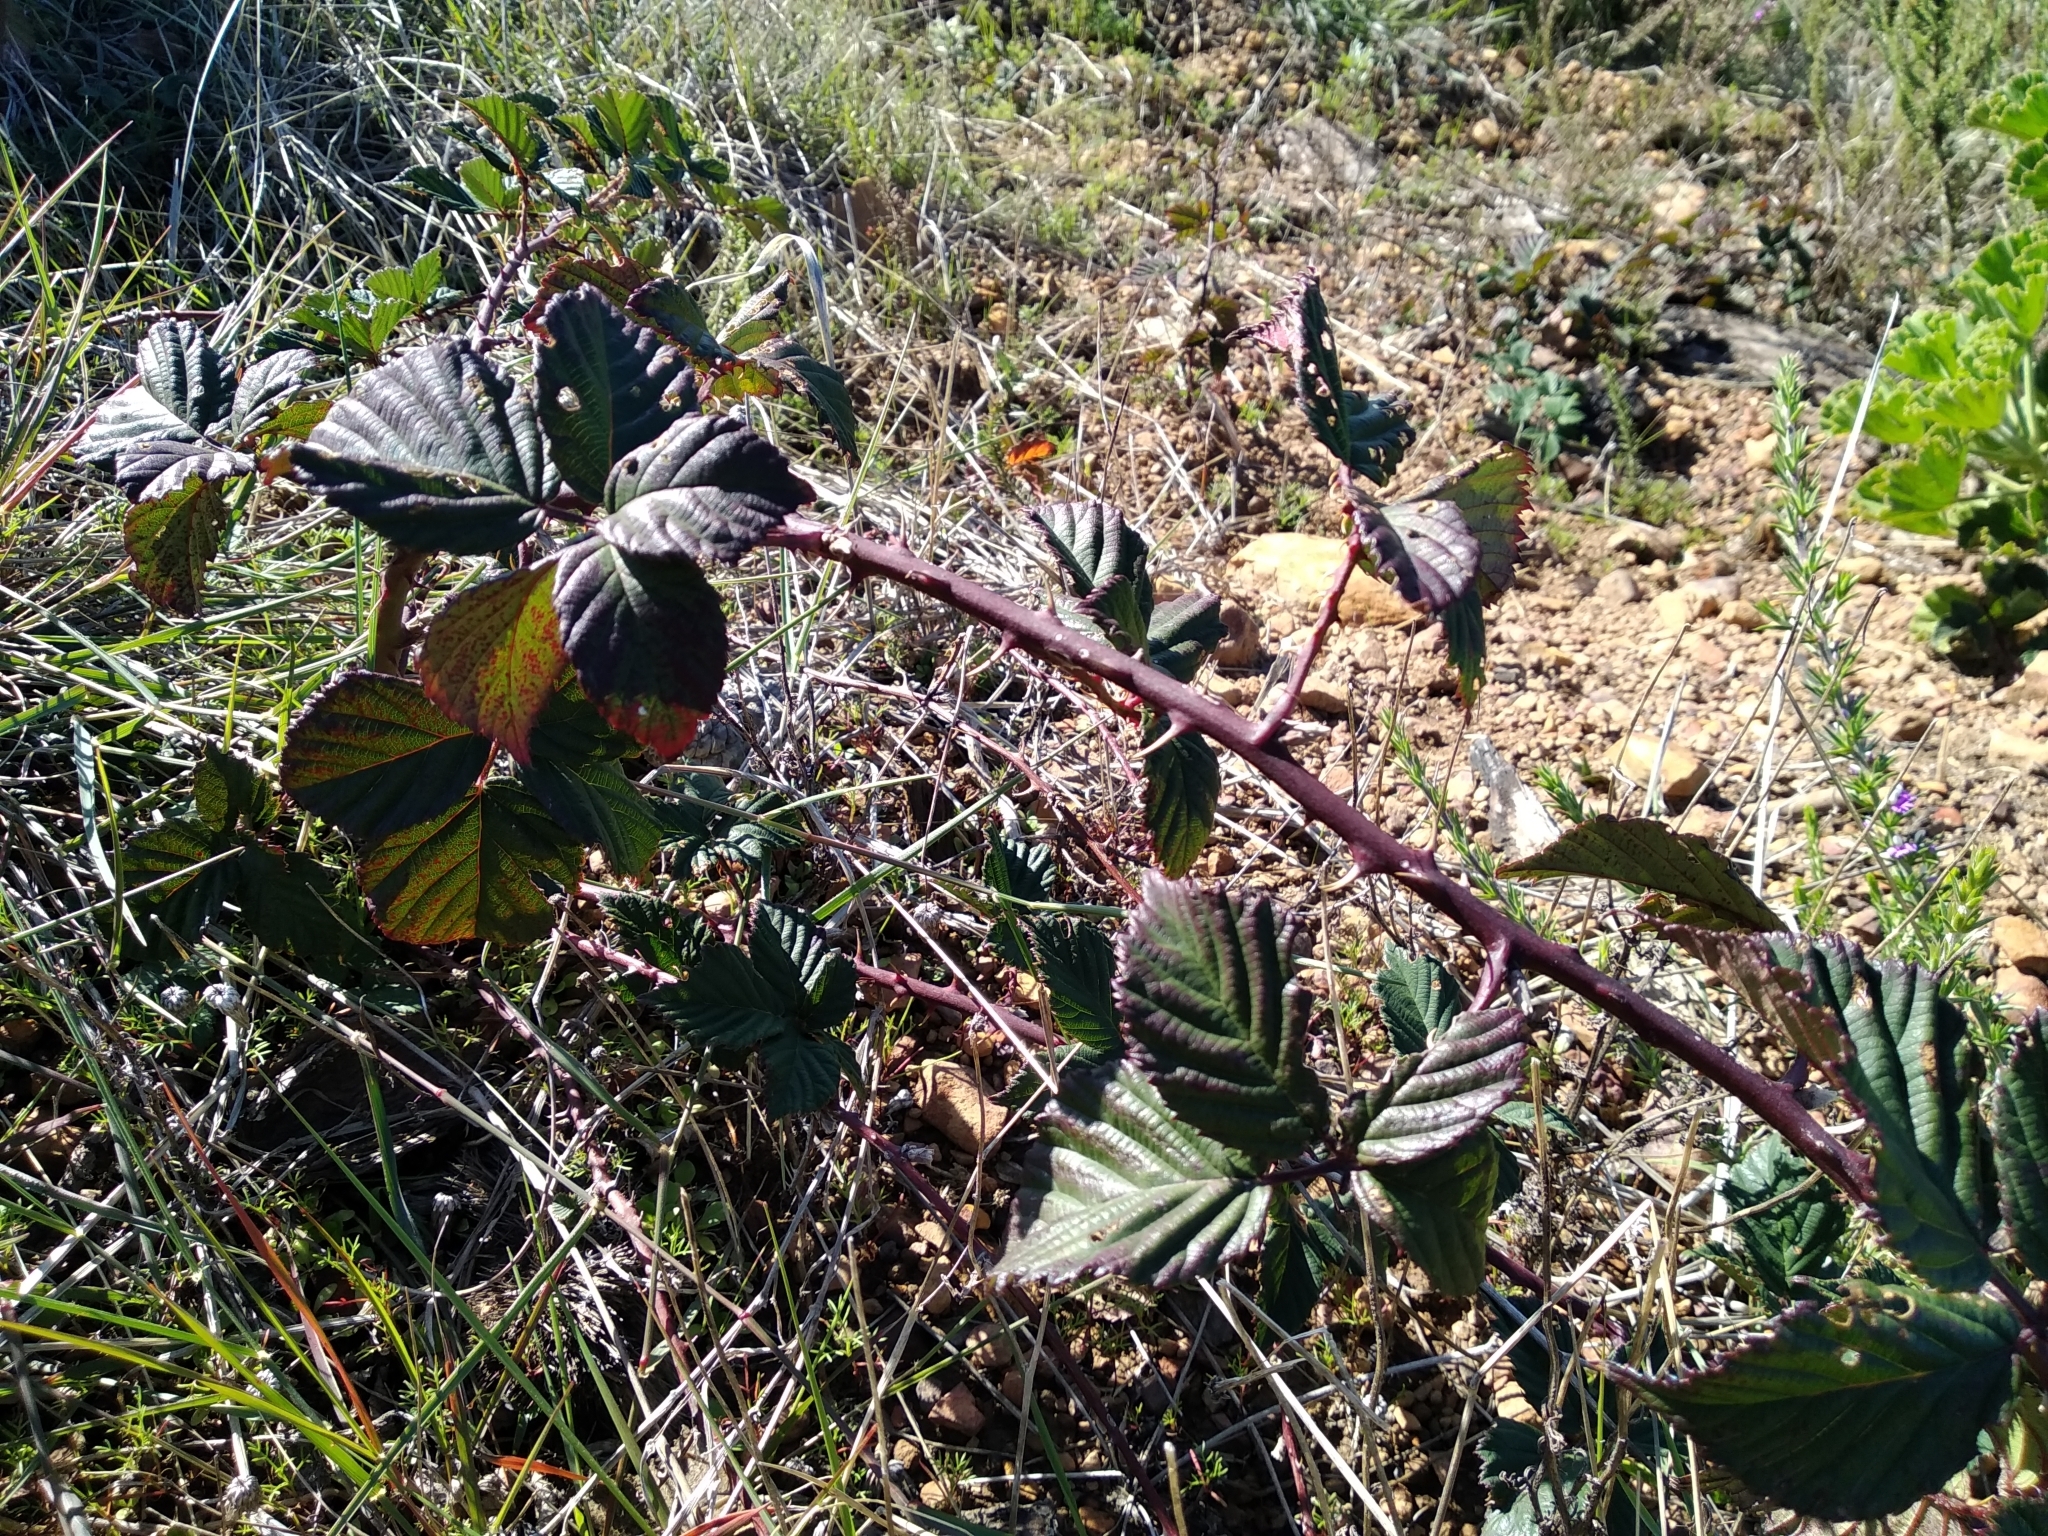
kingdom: Plantae
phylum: Tracheophyta
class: Magnoliopsida
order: Rosales
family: Rosaceae
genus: Rubus
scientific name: Rubus affinis
